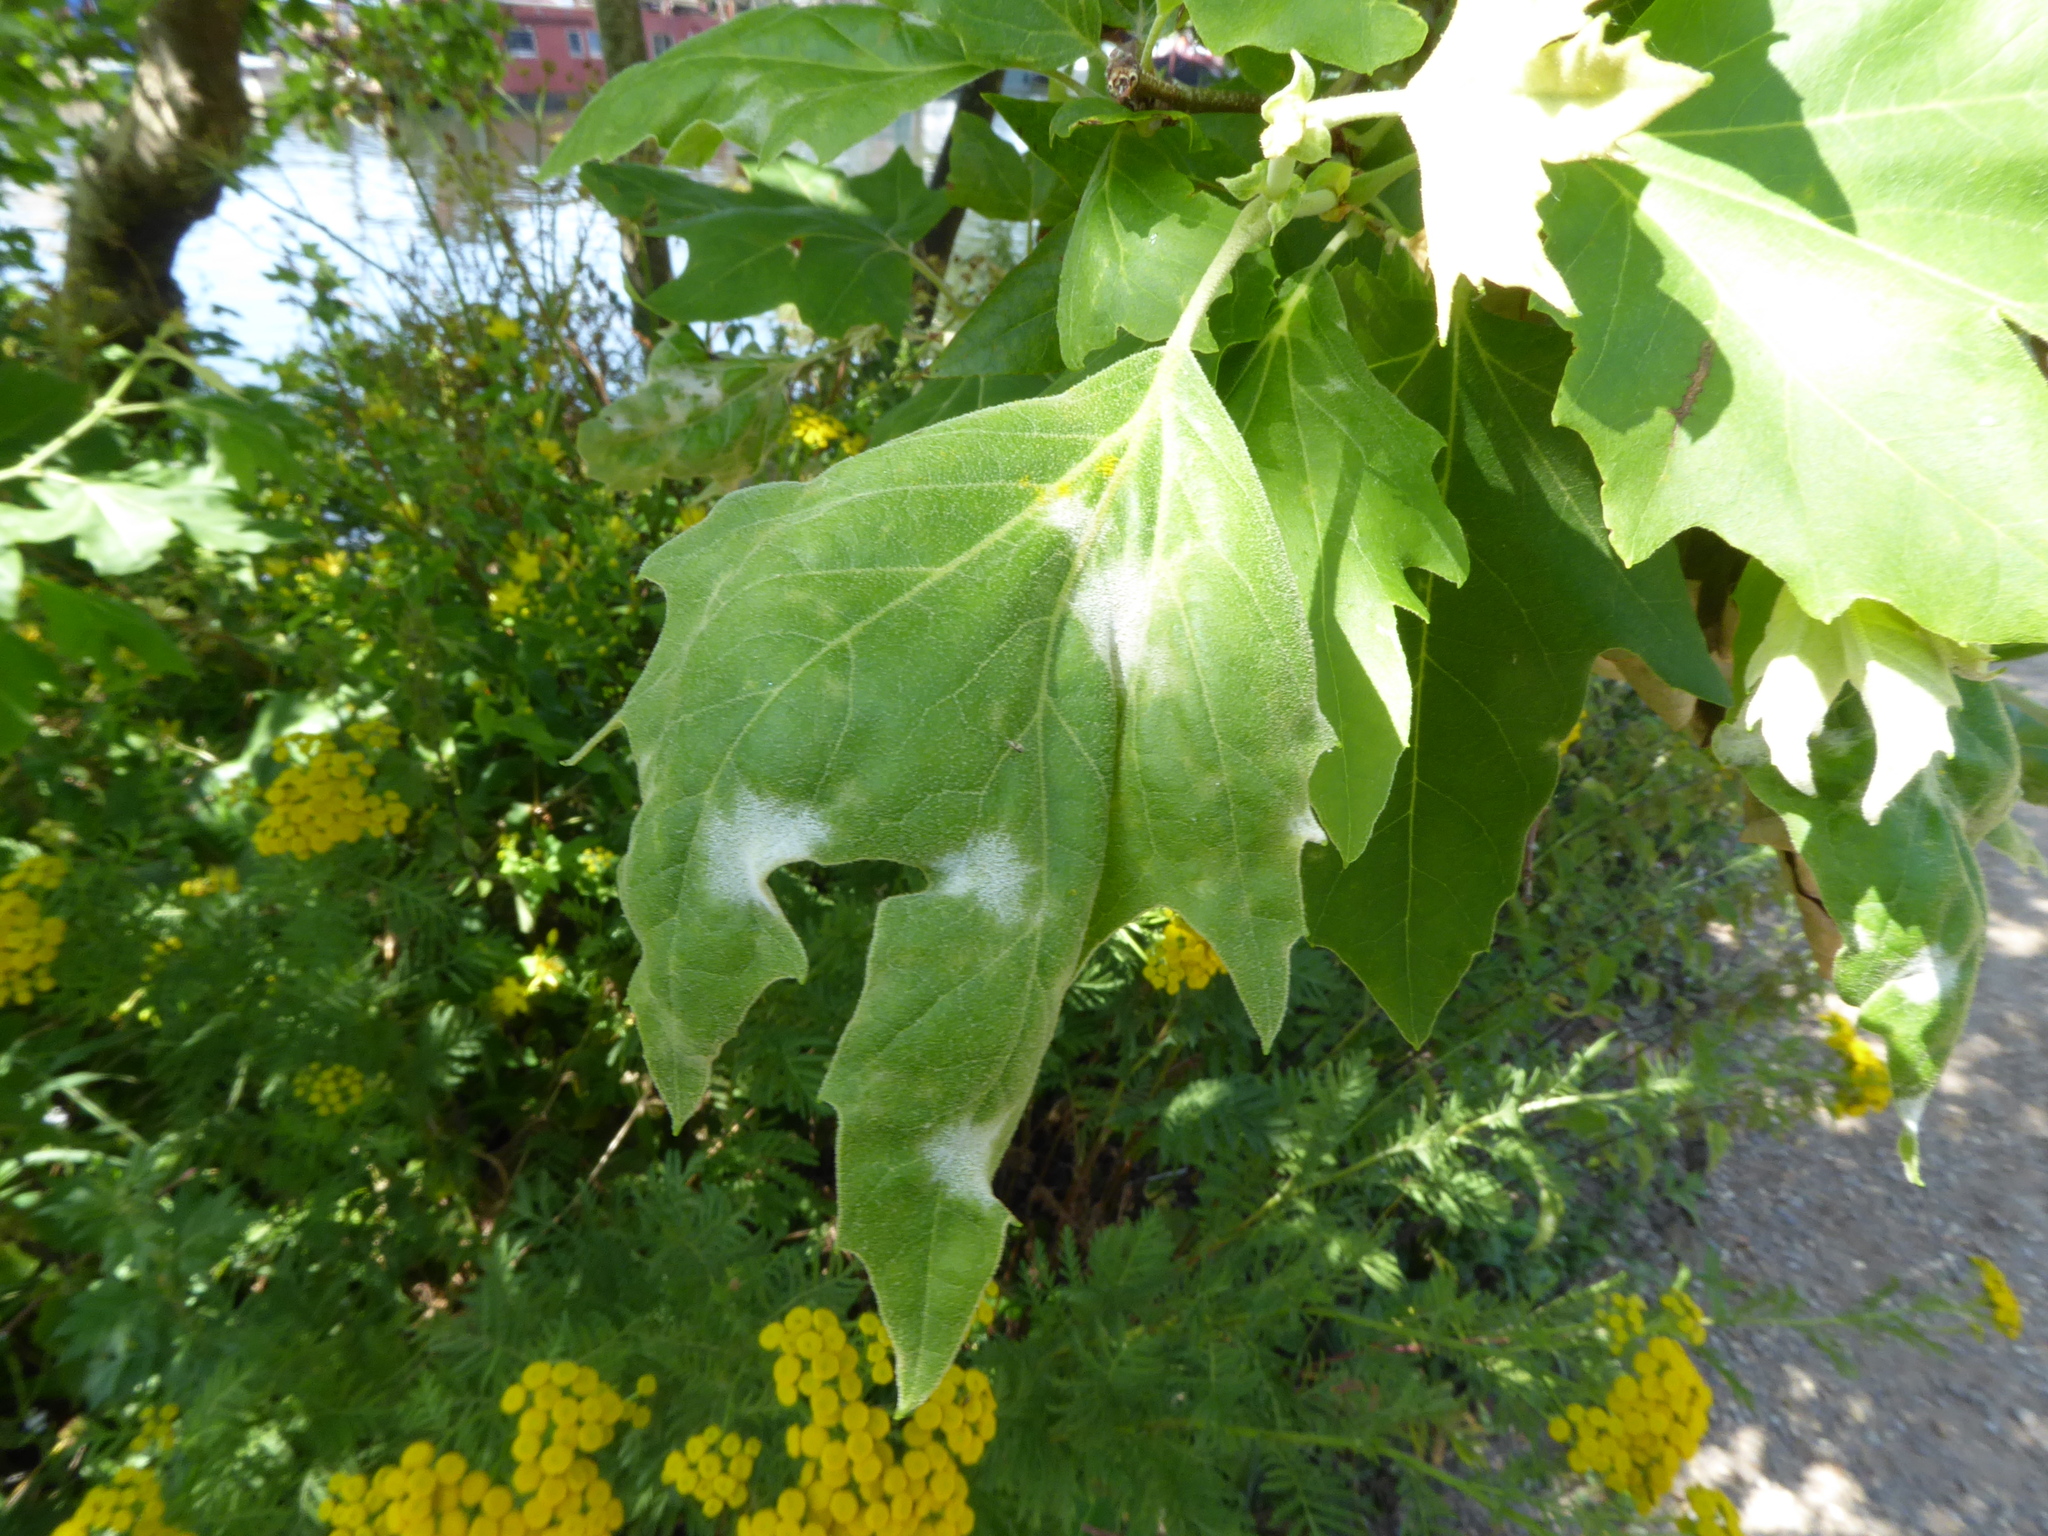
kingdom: Fungi
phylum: Ascomycota
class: Leotiomycetes
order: Helotiales
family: Erysiphaceae
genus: Erysiphe
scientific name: Erysiphe platani
